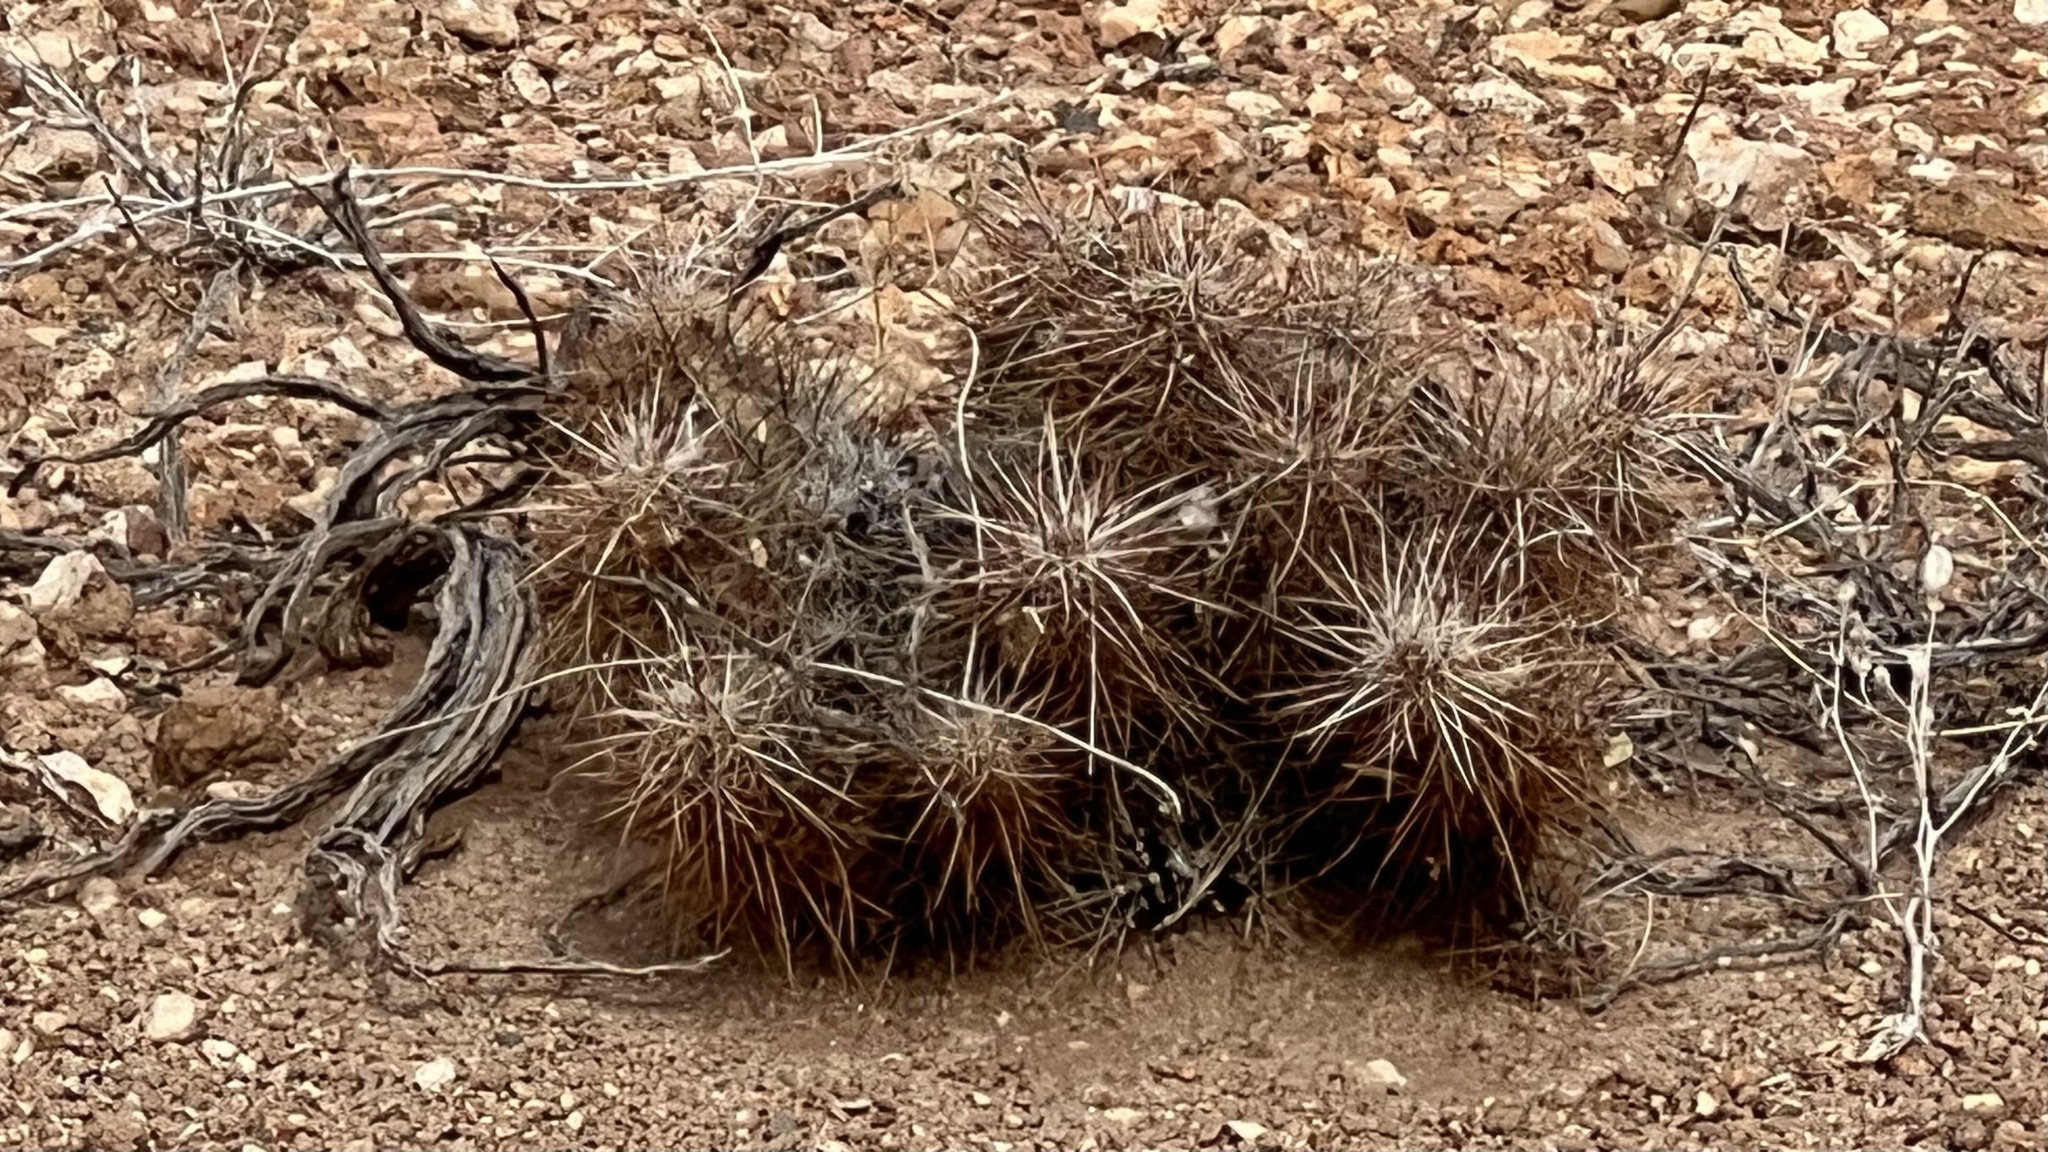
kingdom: Plantae
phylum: Tracheophyta
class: Magnoliopsida
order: Caryophyllales
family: Cactaceae
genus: Echinocereus
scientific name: Echinocereus engelmannii
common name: Engelmann's hedgehog cactus
